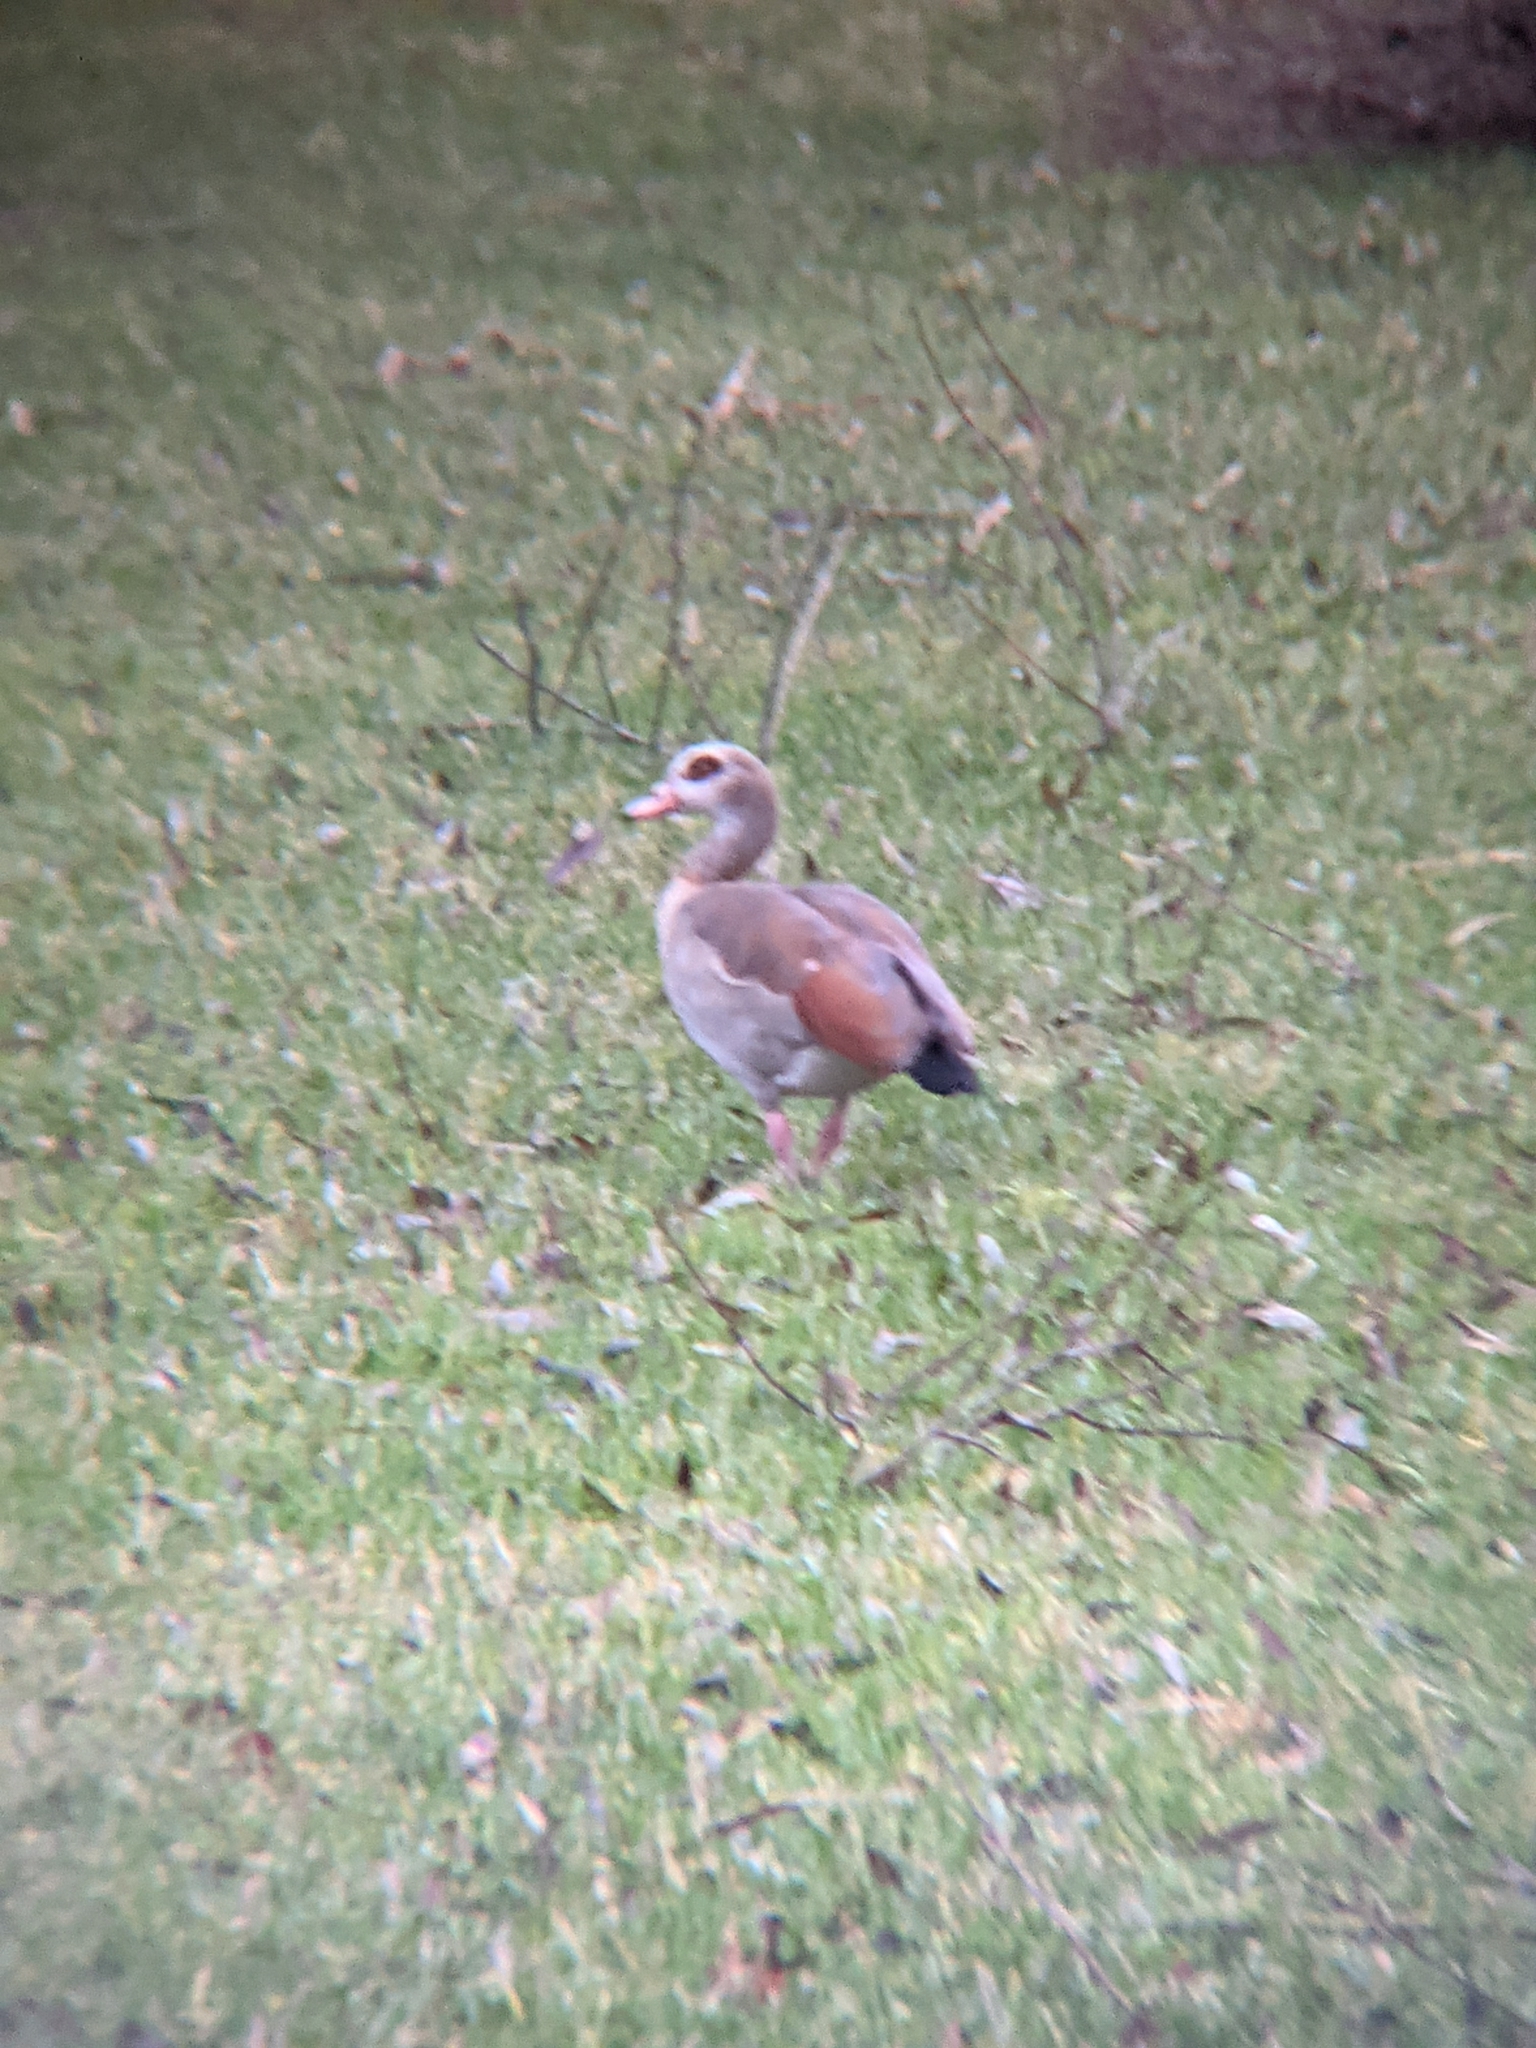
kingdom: Animalia
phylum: Chordata
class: Aves
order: Anseriformes
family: Anatidae
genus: Alopochen
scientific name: Alopochen aegyptiaca
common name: Egyptian goose
